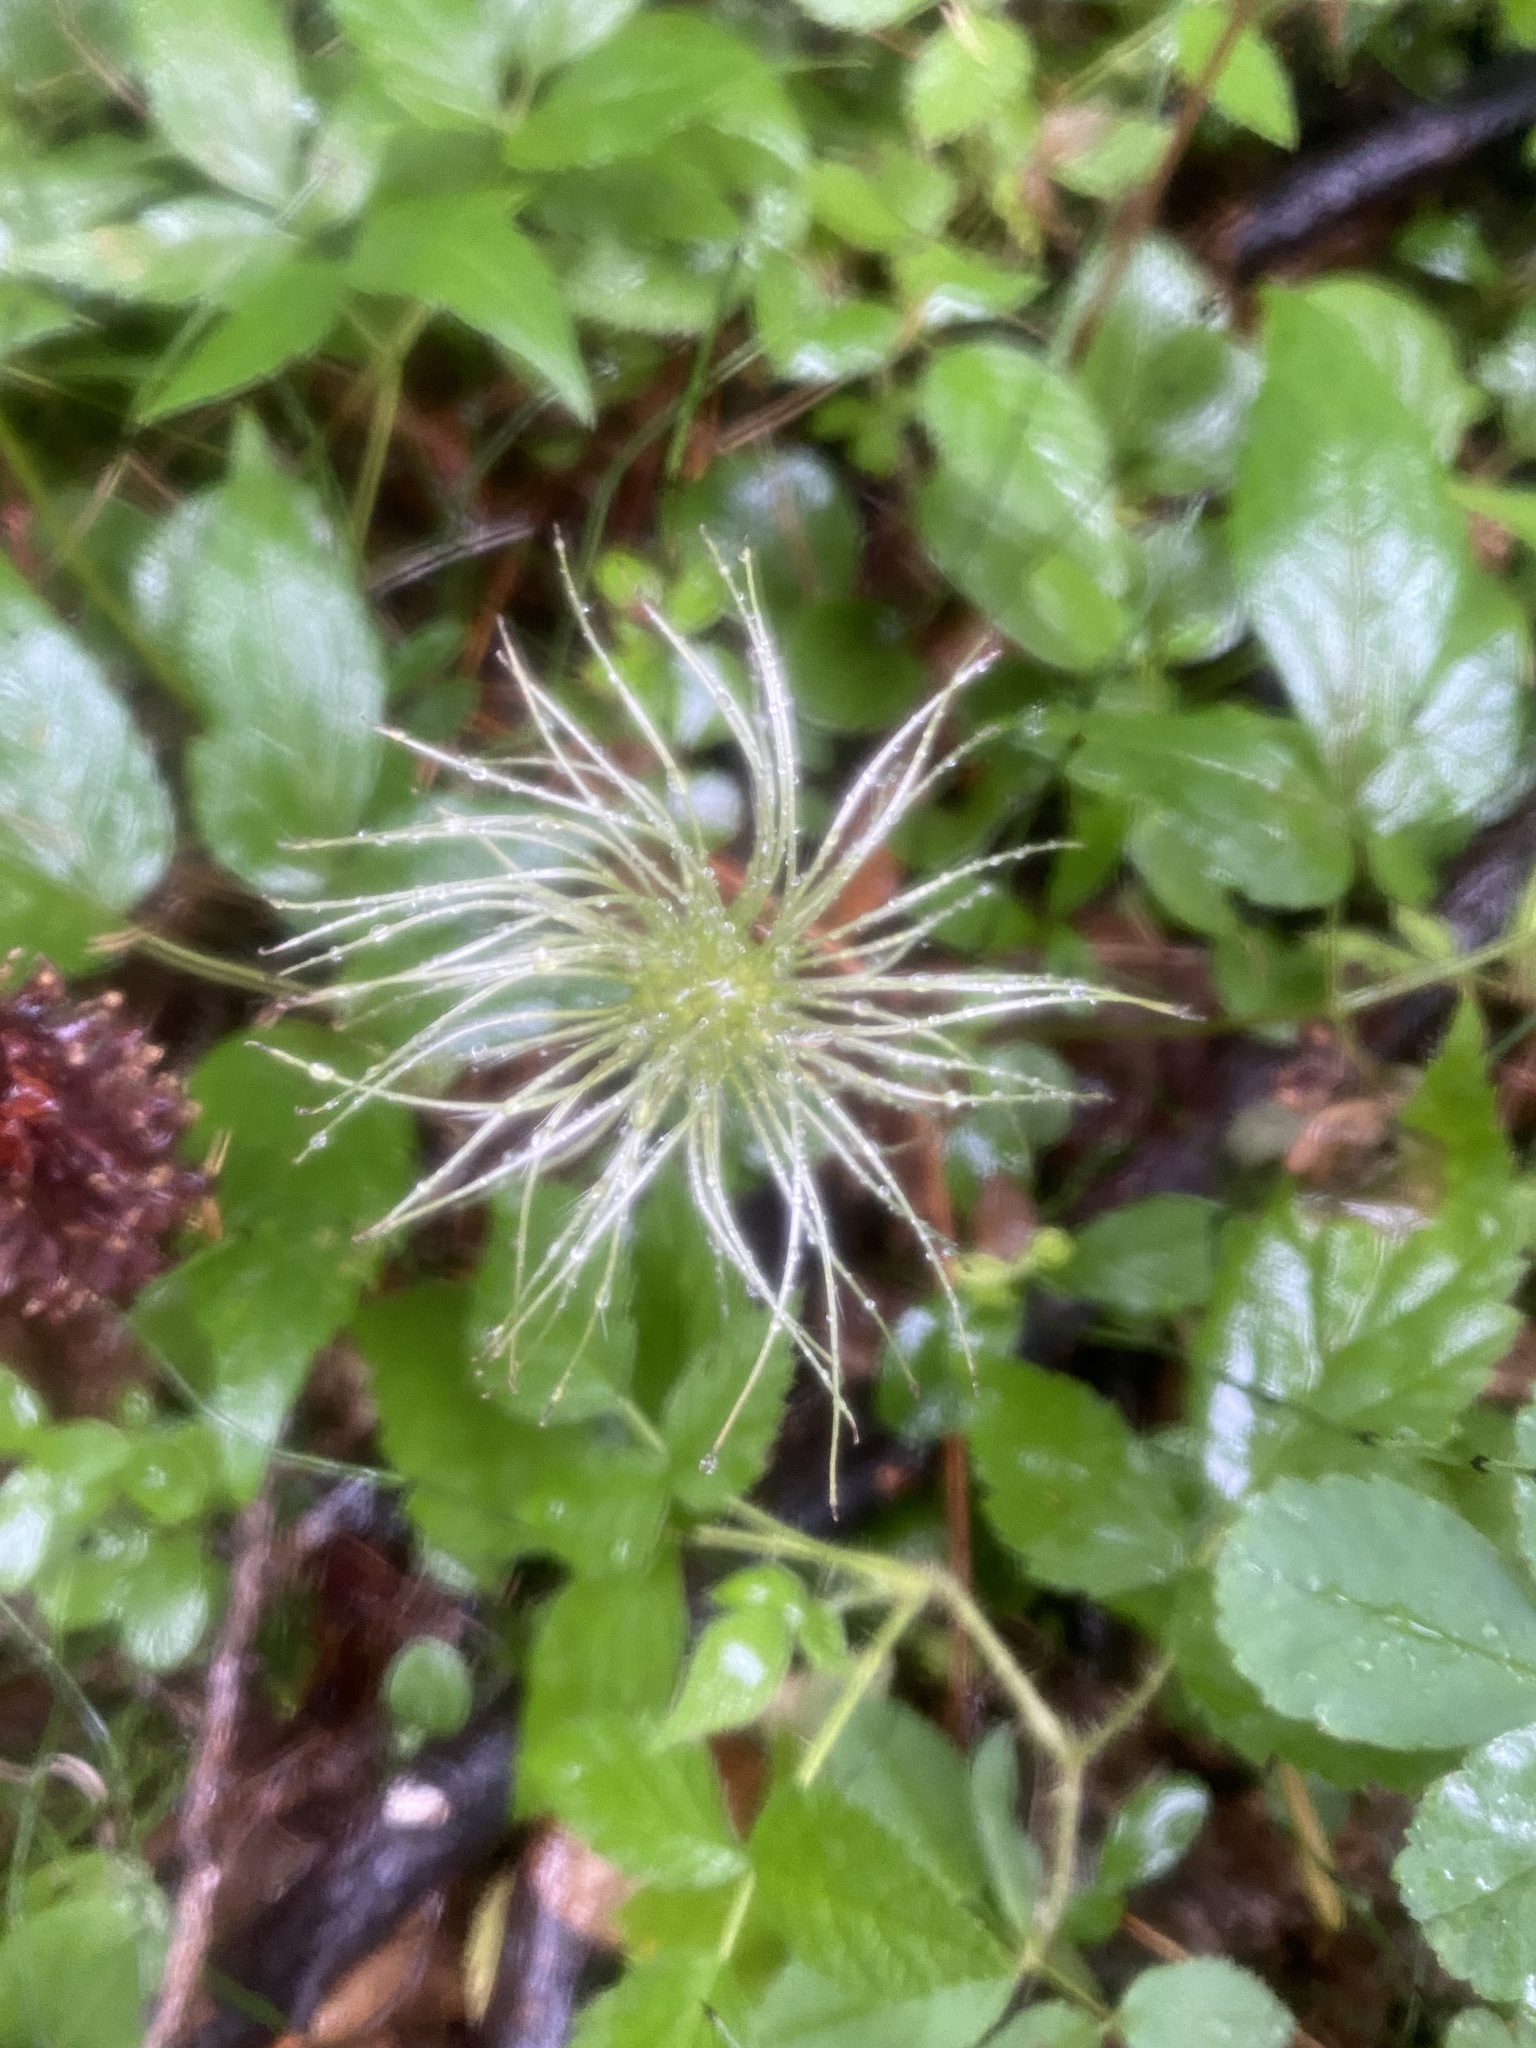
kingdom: Plantae
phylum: Tracheophyta
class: Magnoliopsida
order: Ranunculales
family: Ranunculaceae
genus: Clematis
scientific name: Clematis sibirica
